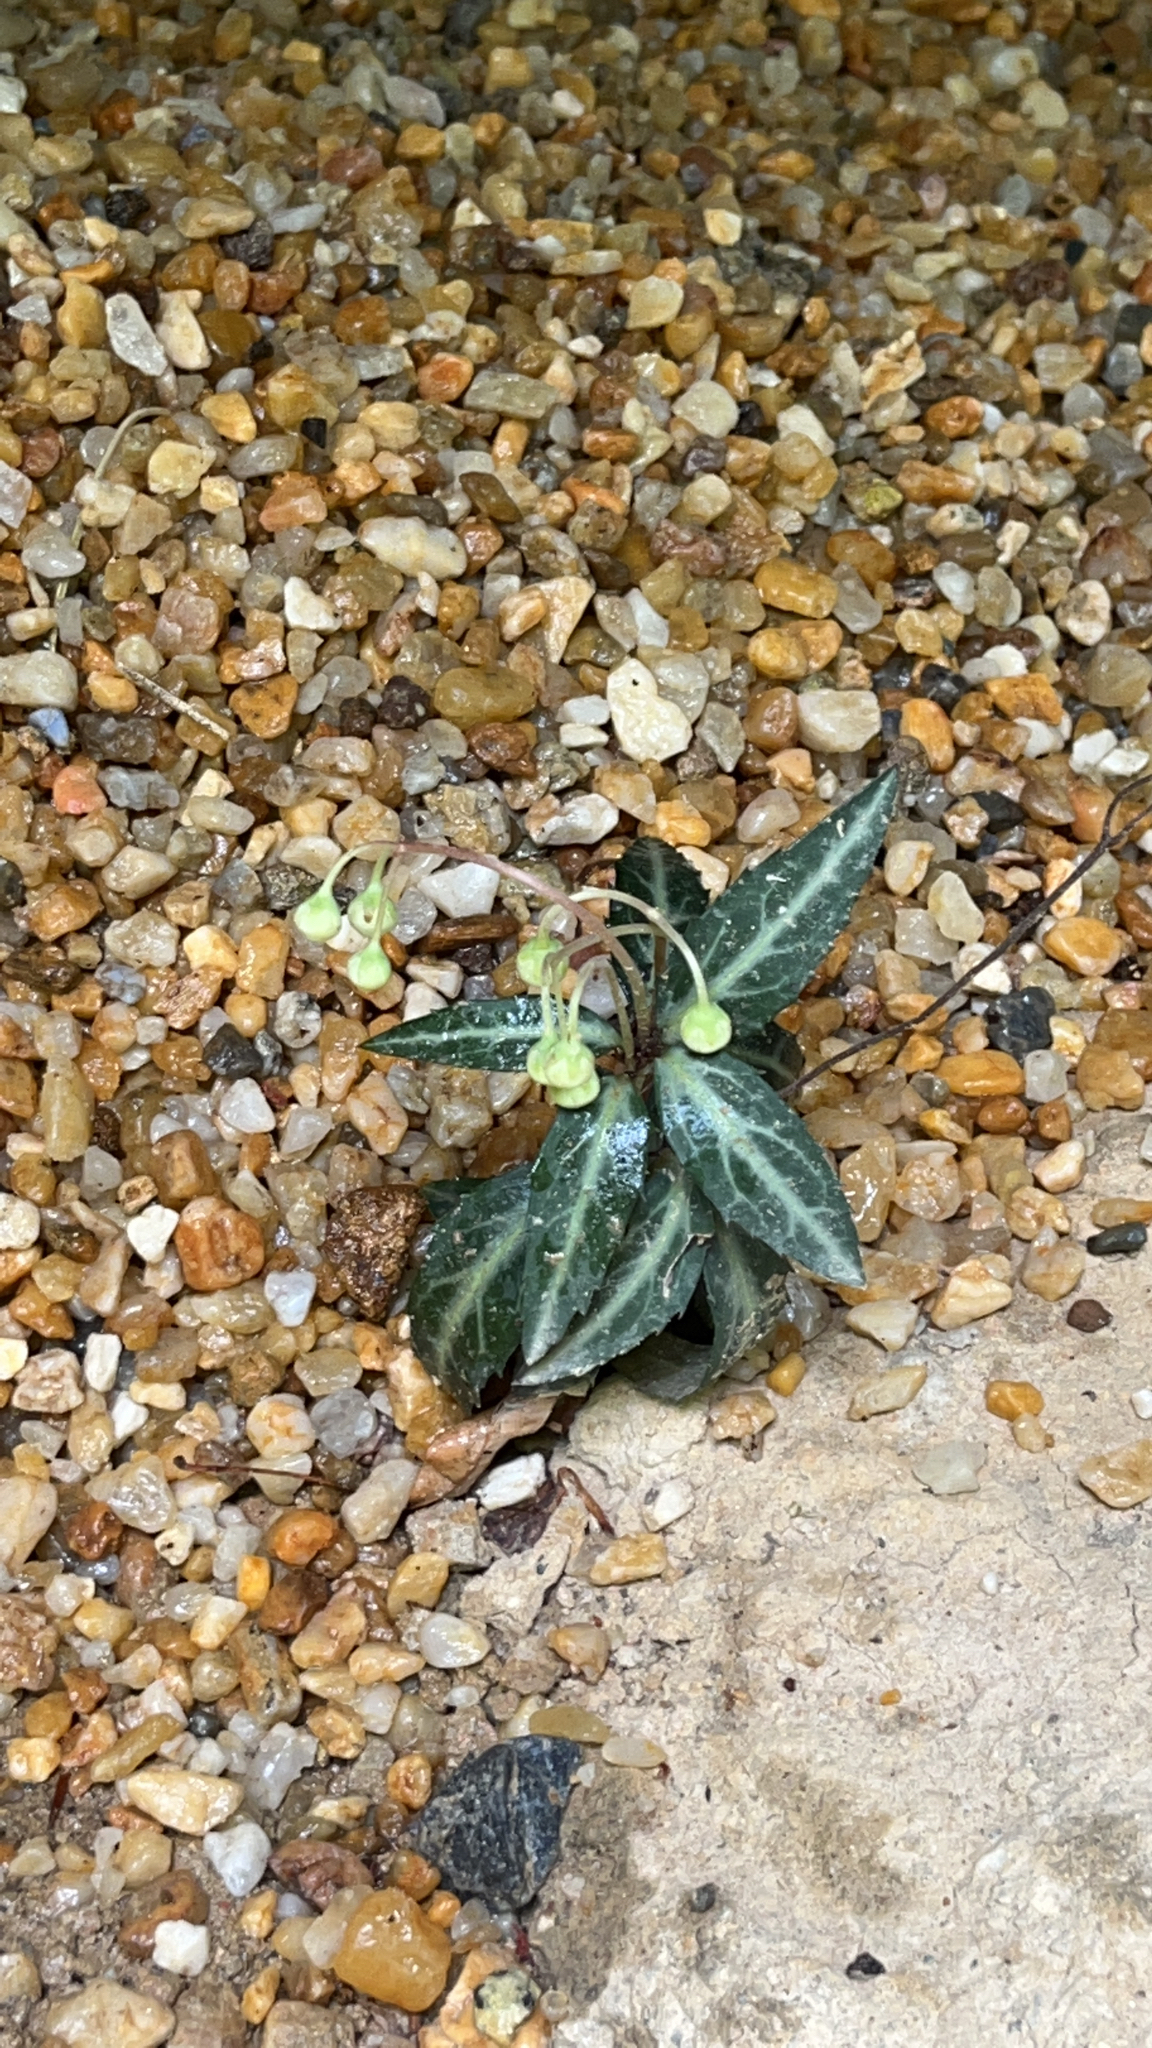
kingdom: Plantae
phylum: Tracheophyta
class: Magnoliopsida
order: Ericales
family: Ericaceae
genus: Chimaphila
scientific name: Chimaphila maculata
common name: Spotted pipsissewa
